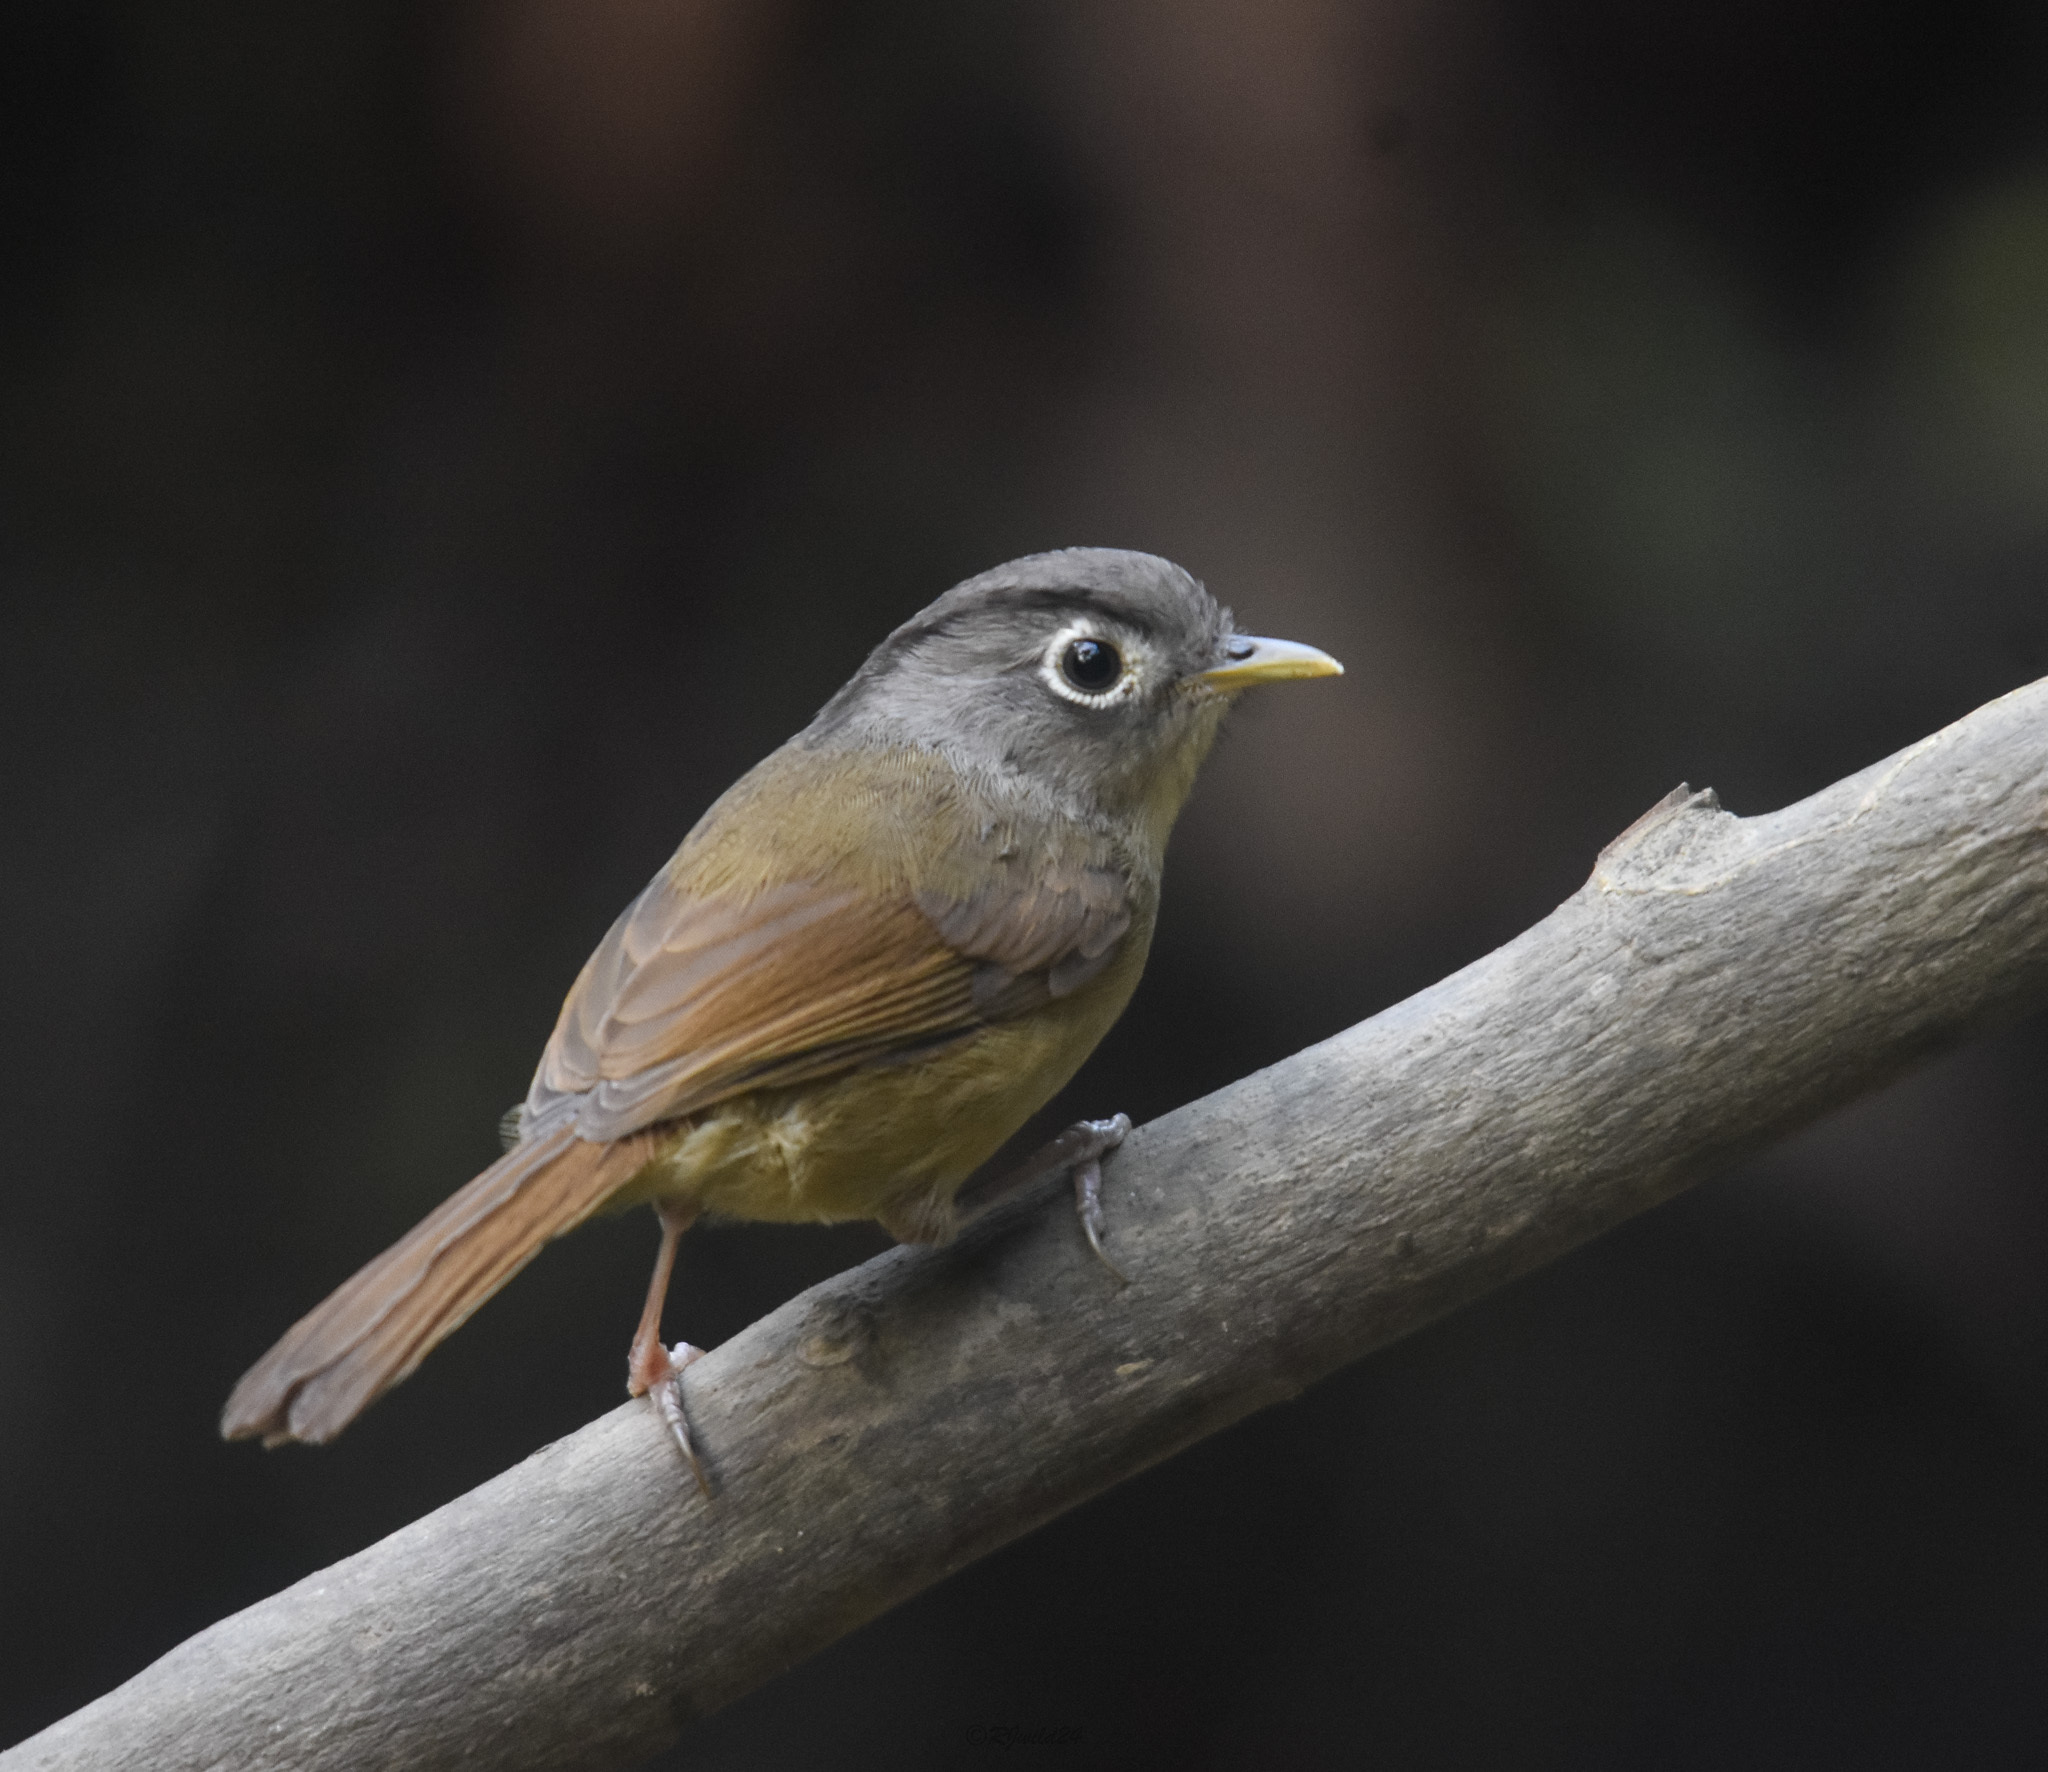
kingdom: Animalia
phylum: Chordata
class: Aves
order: Passeriformes
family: Pellorneidae
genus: Alcippe
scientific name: Alcippe nipalensis
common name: Nepal fulvetta
